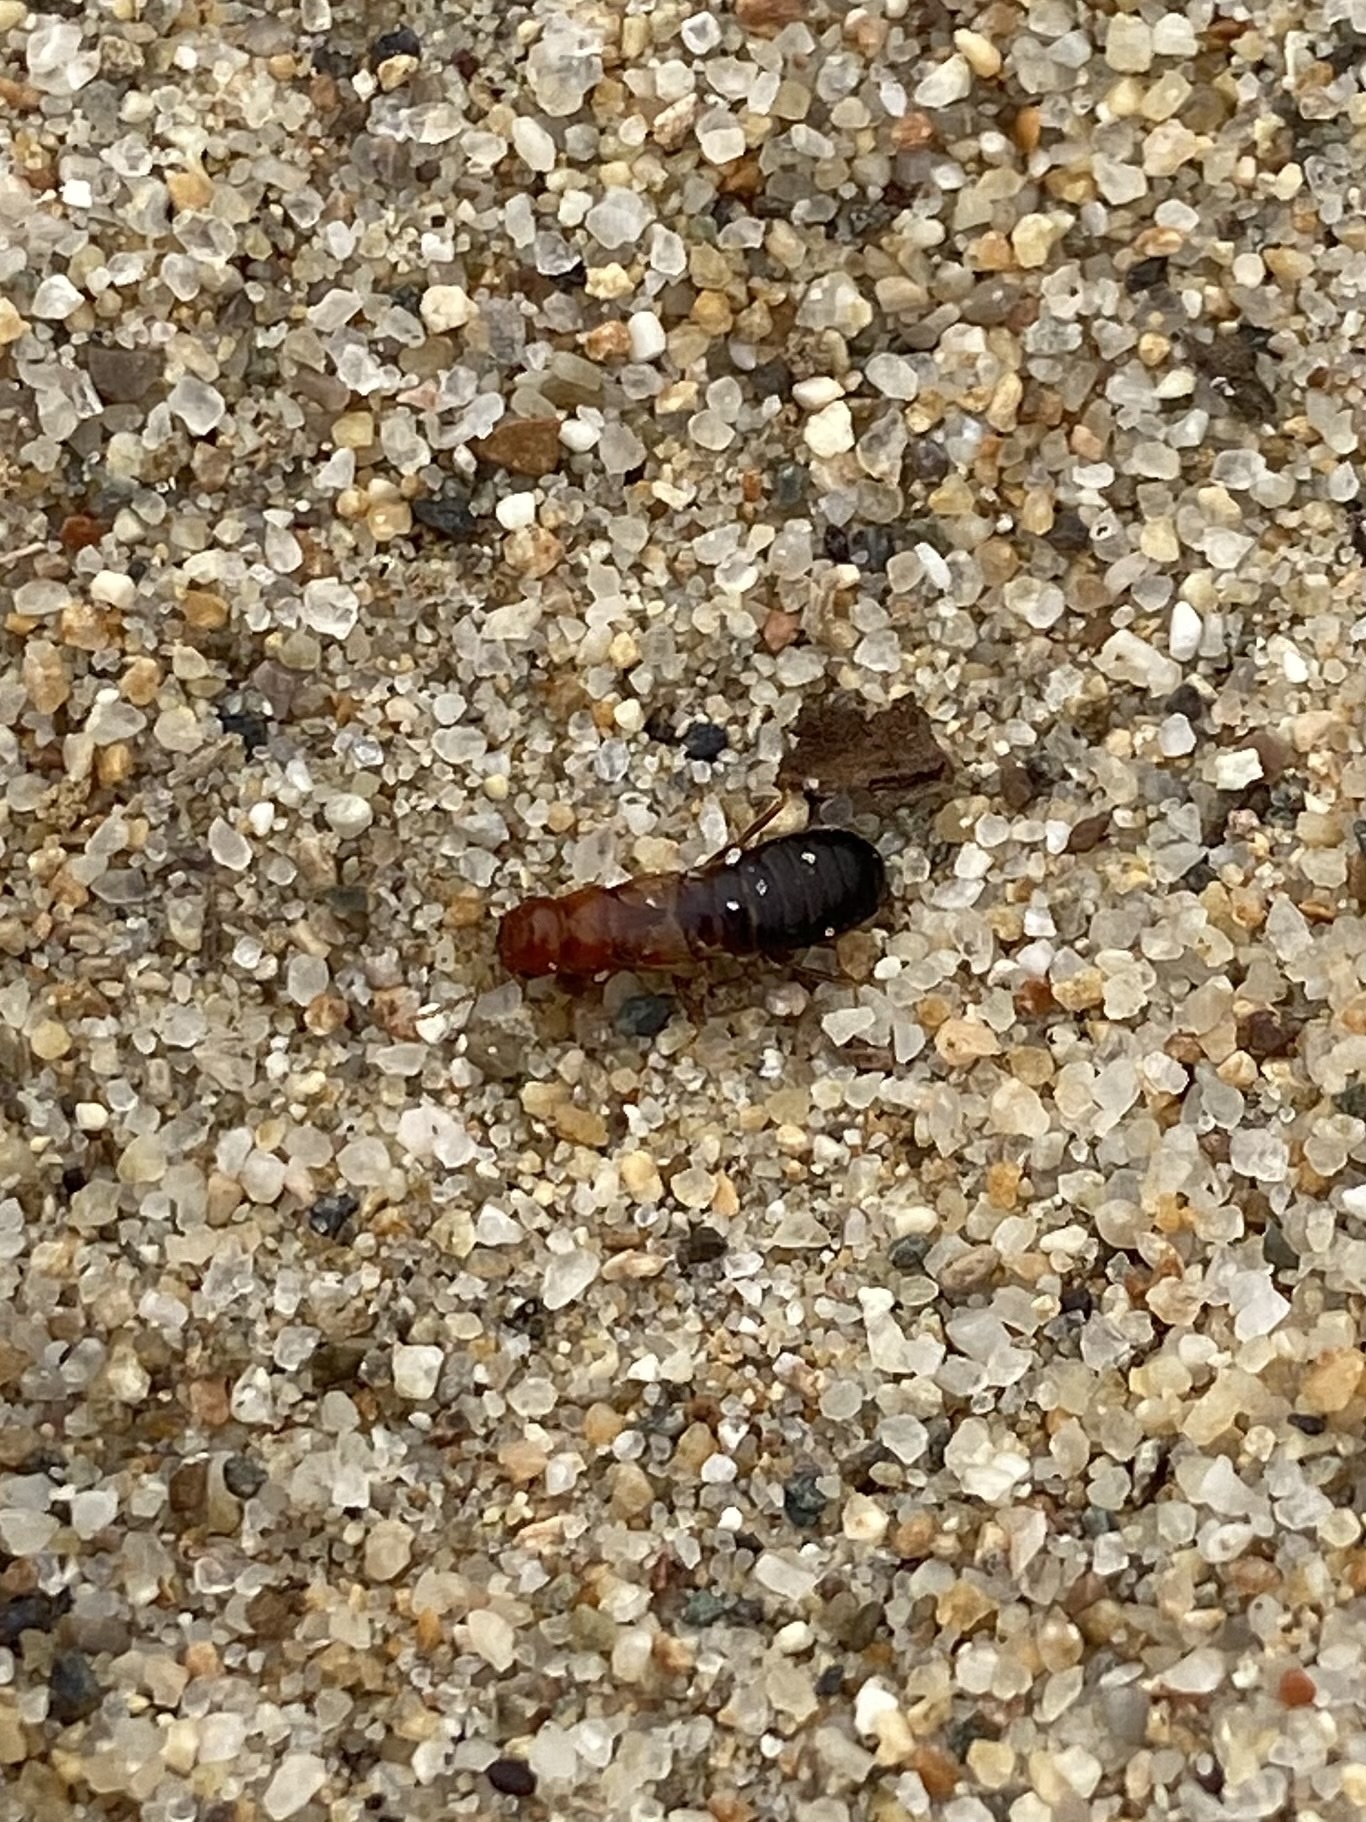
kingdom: Animalia
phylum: Arthropoda
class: Insecta
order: Blattodea
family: Kalotermitidae
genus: Incisitermes
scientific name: Incisitermes minor
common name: Termite
